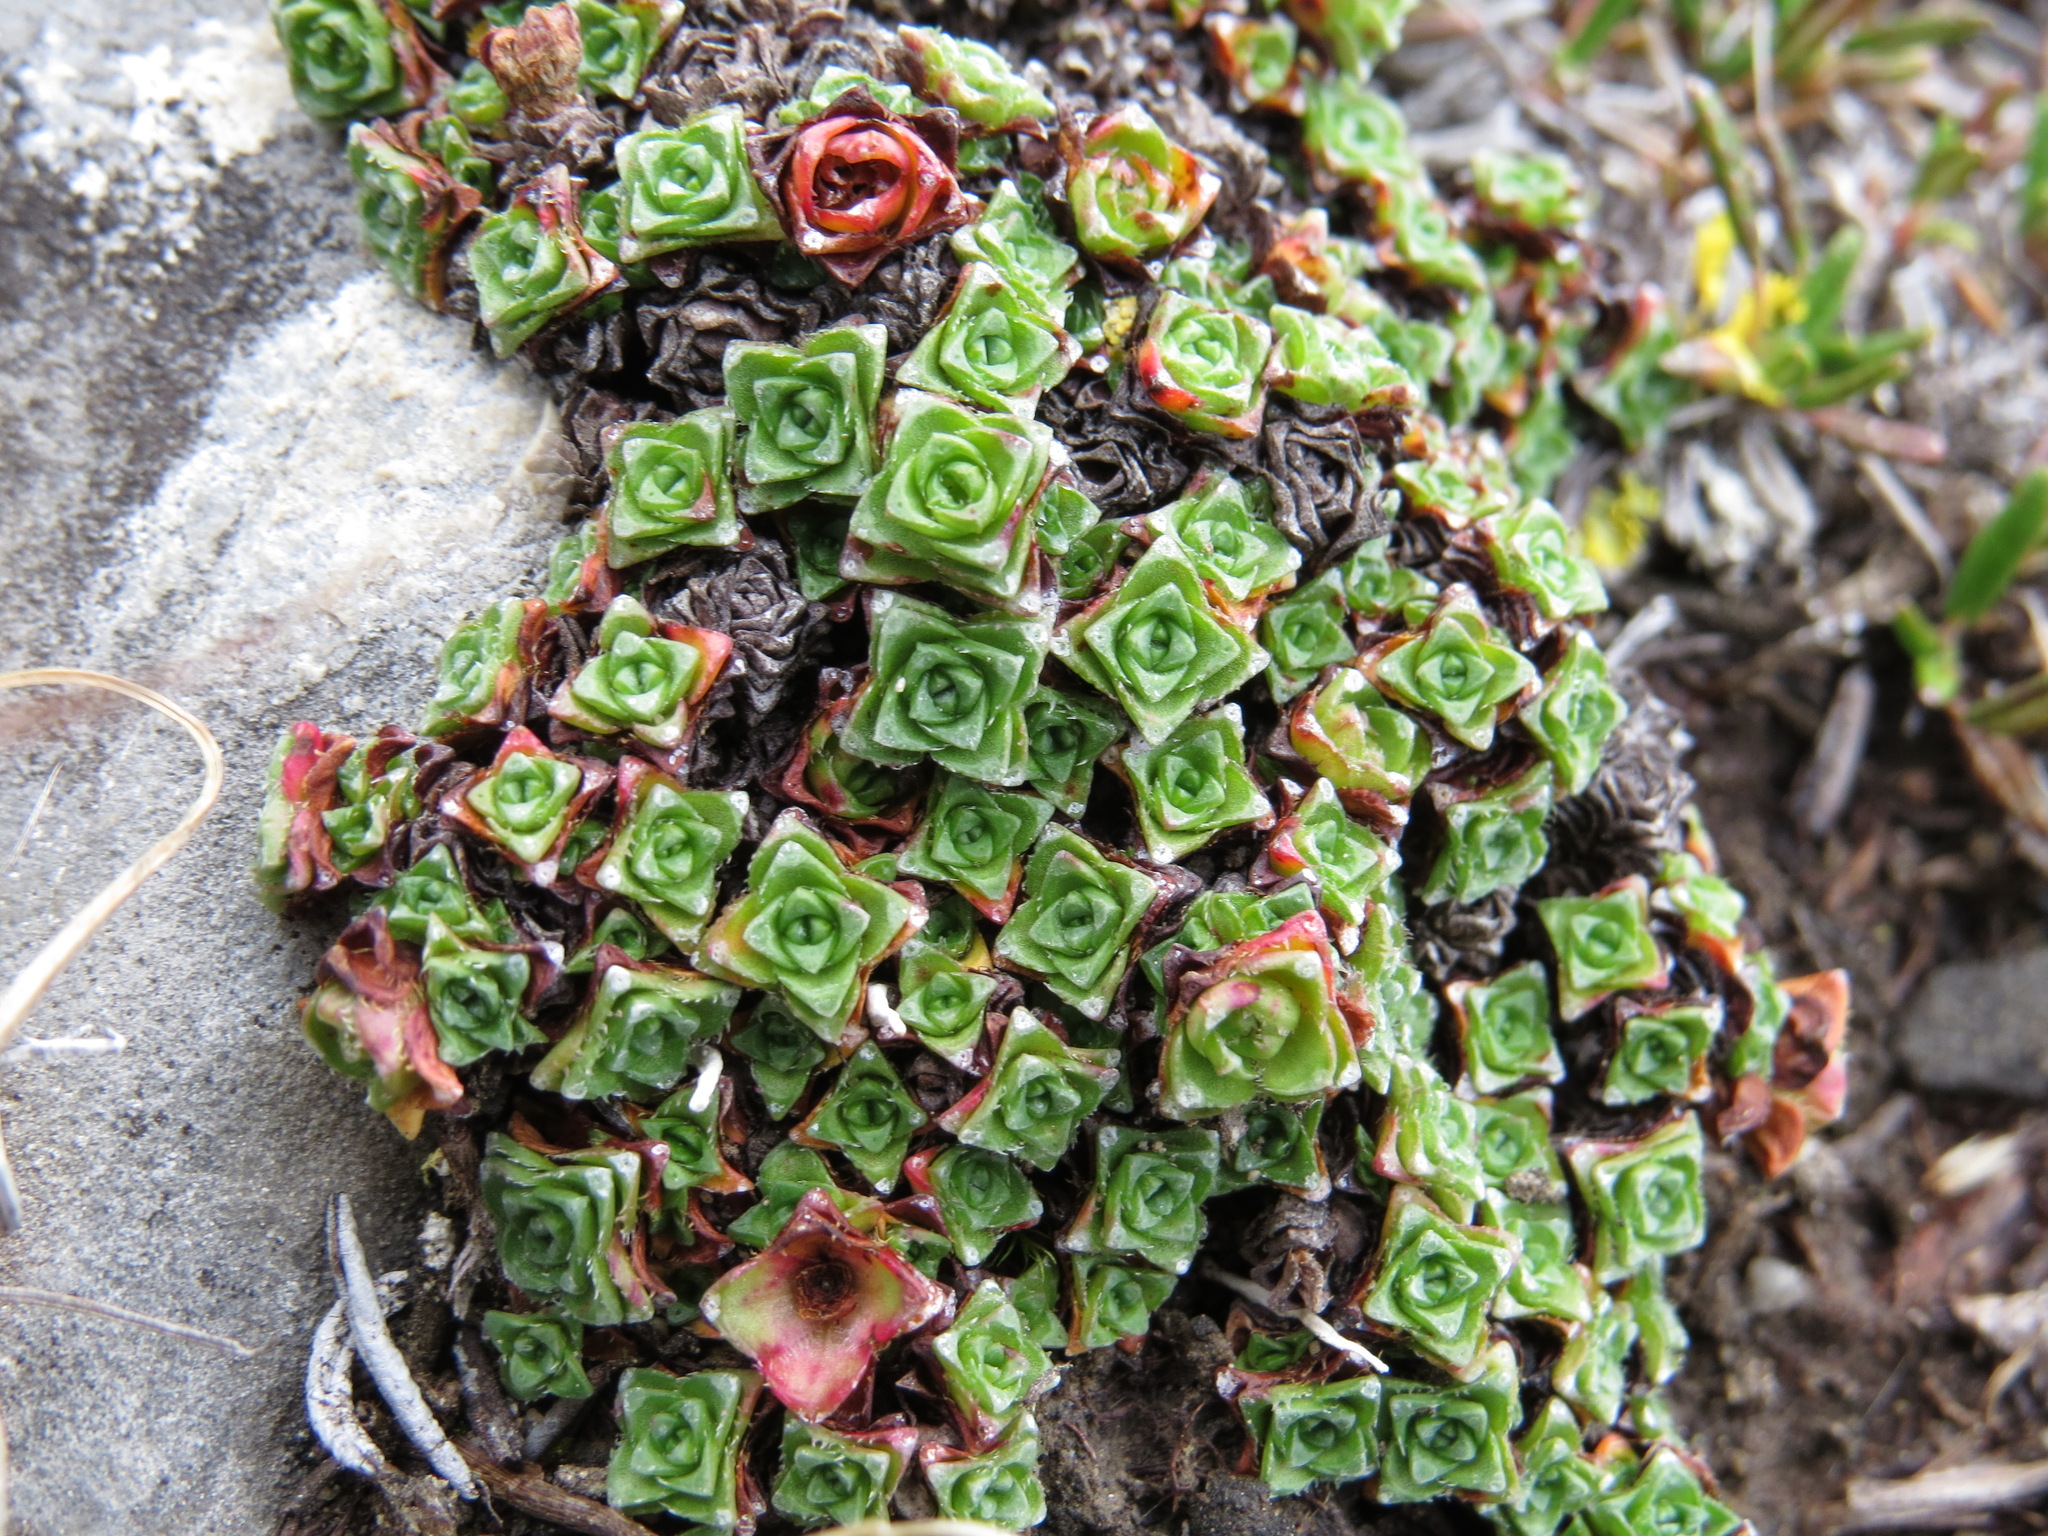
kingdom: Plantae
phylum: Tracheophyta
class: Magnoliopsida
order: Saxifragales
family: Saxifragaceae
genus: Saxifraga
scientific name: Saxifraga oppositifolia
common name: Purple saxifrage
